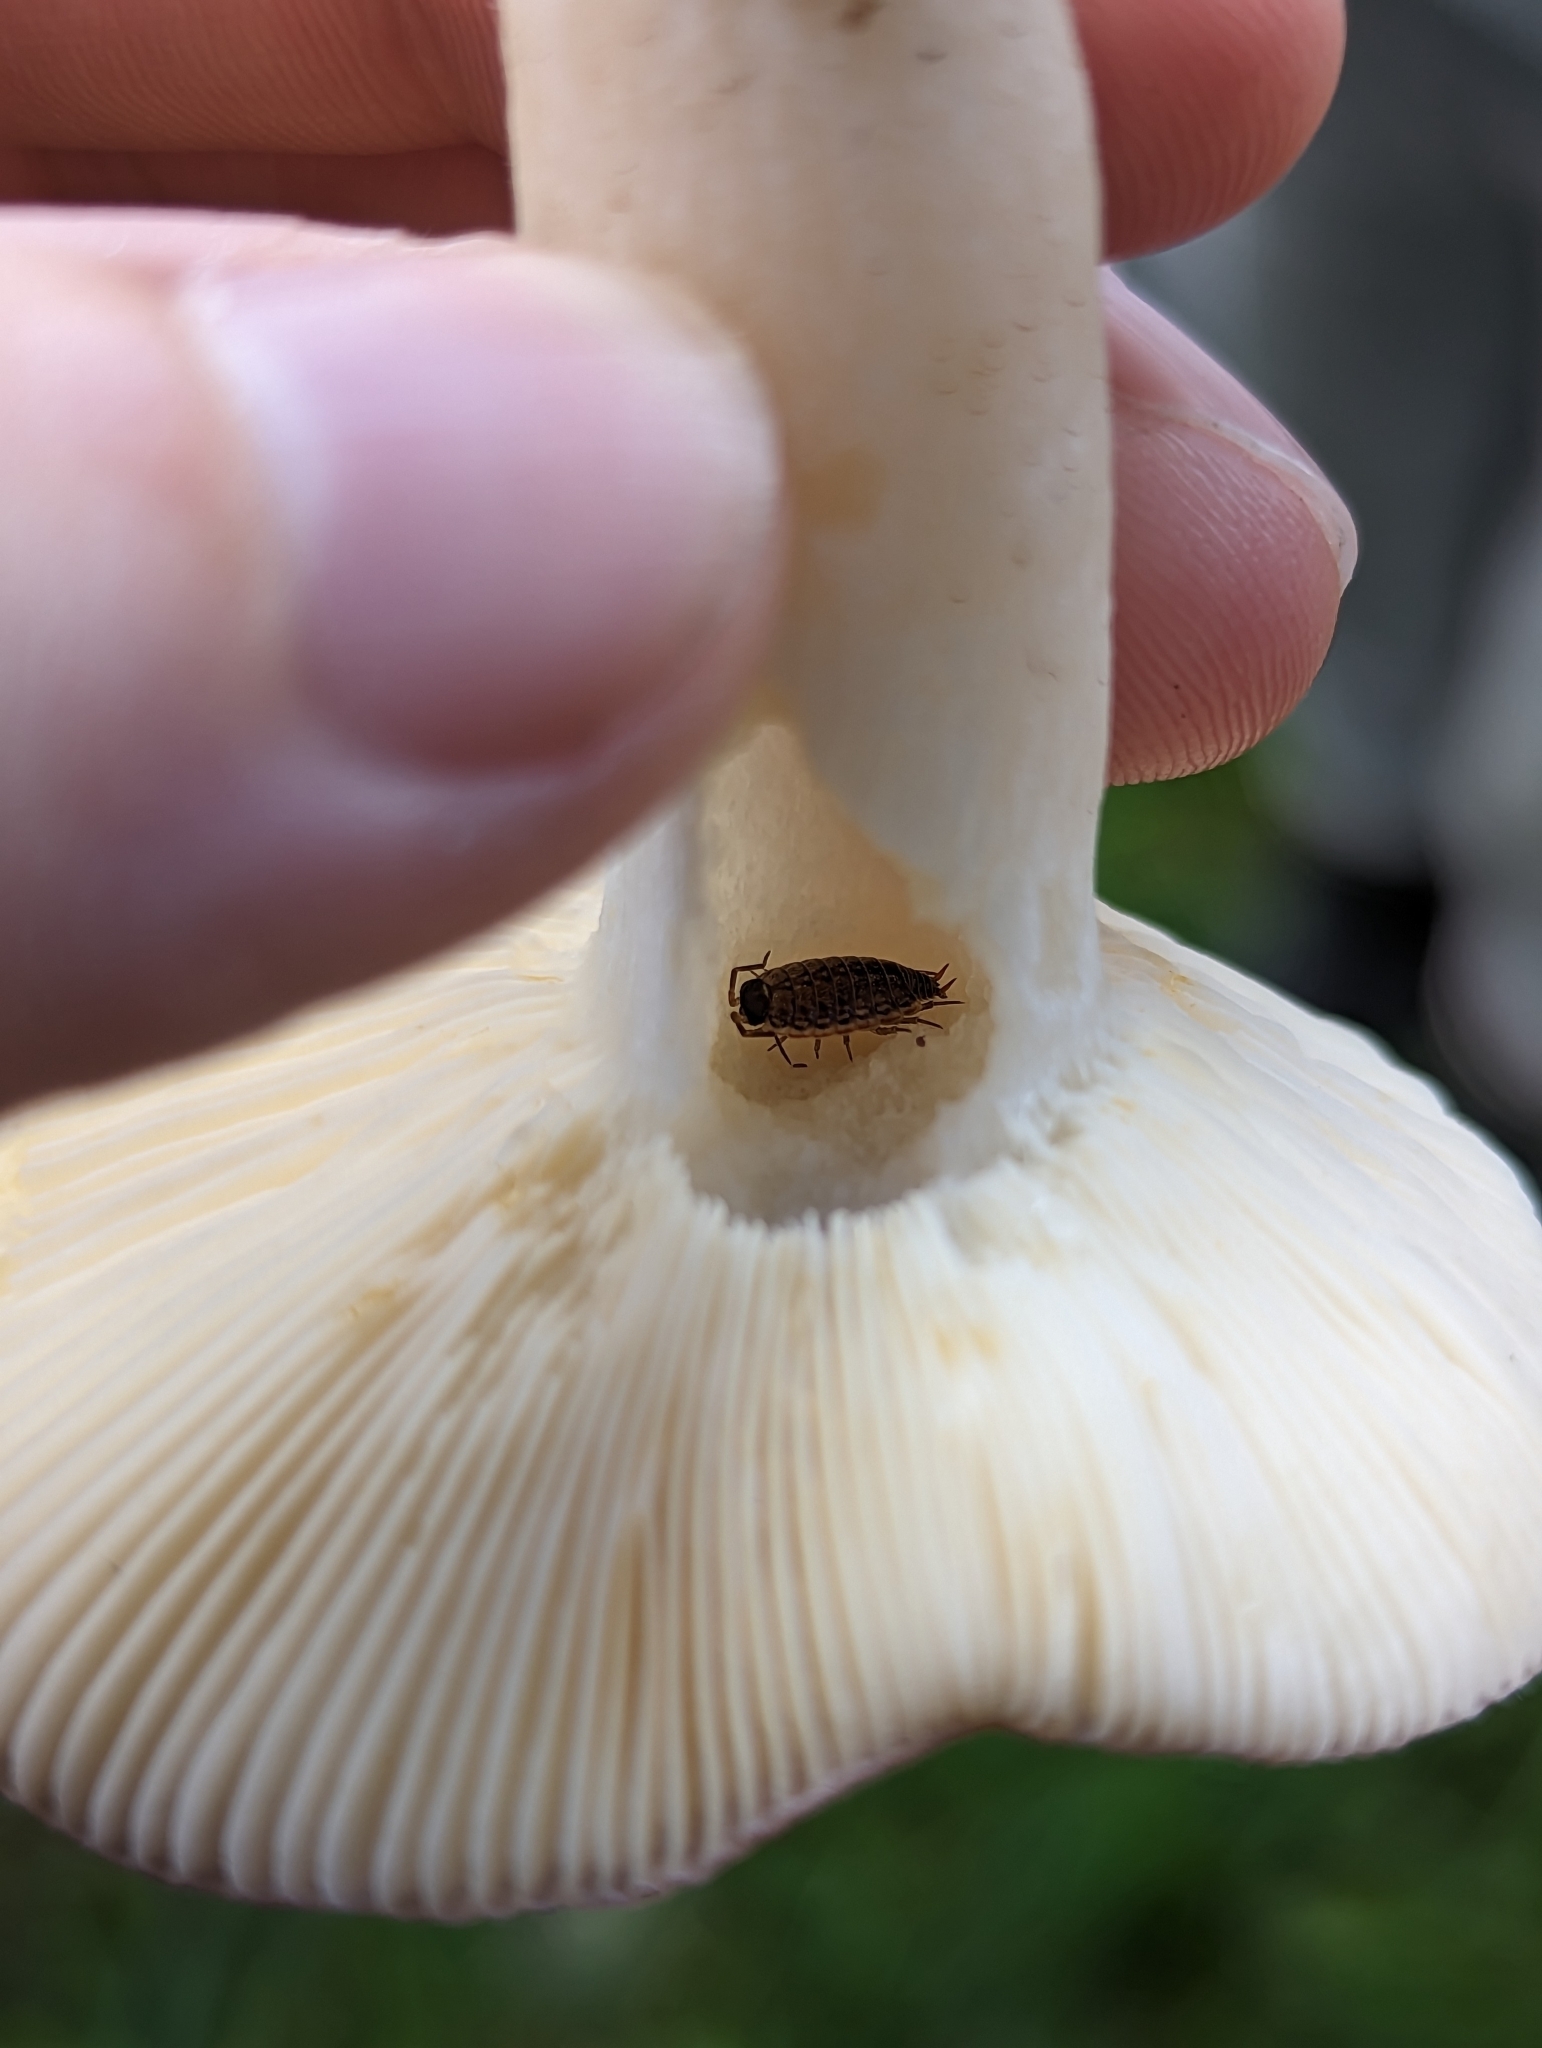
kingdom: Animalia
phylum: Arthropoda
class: Malacostraca
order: Isopoda
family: Philosciidae
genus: Philoscia
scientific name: Philoscia muscorum
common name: Common striped woodlouse
